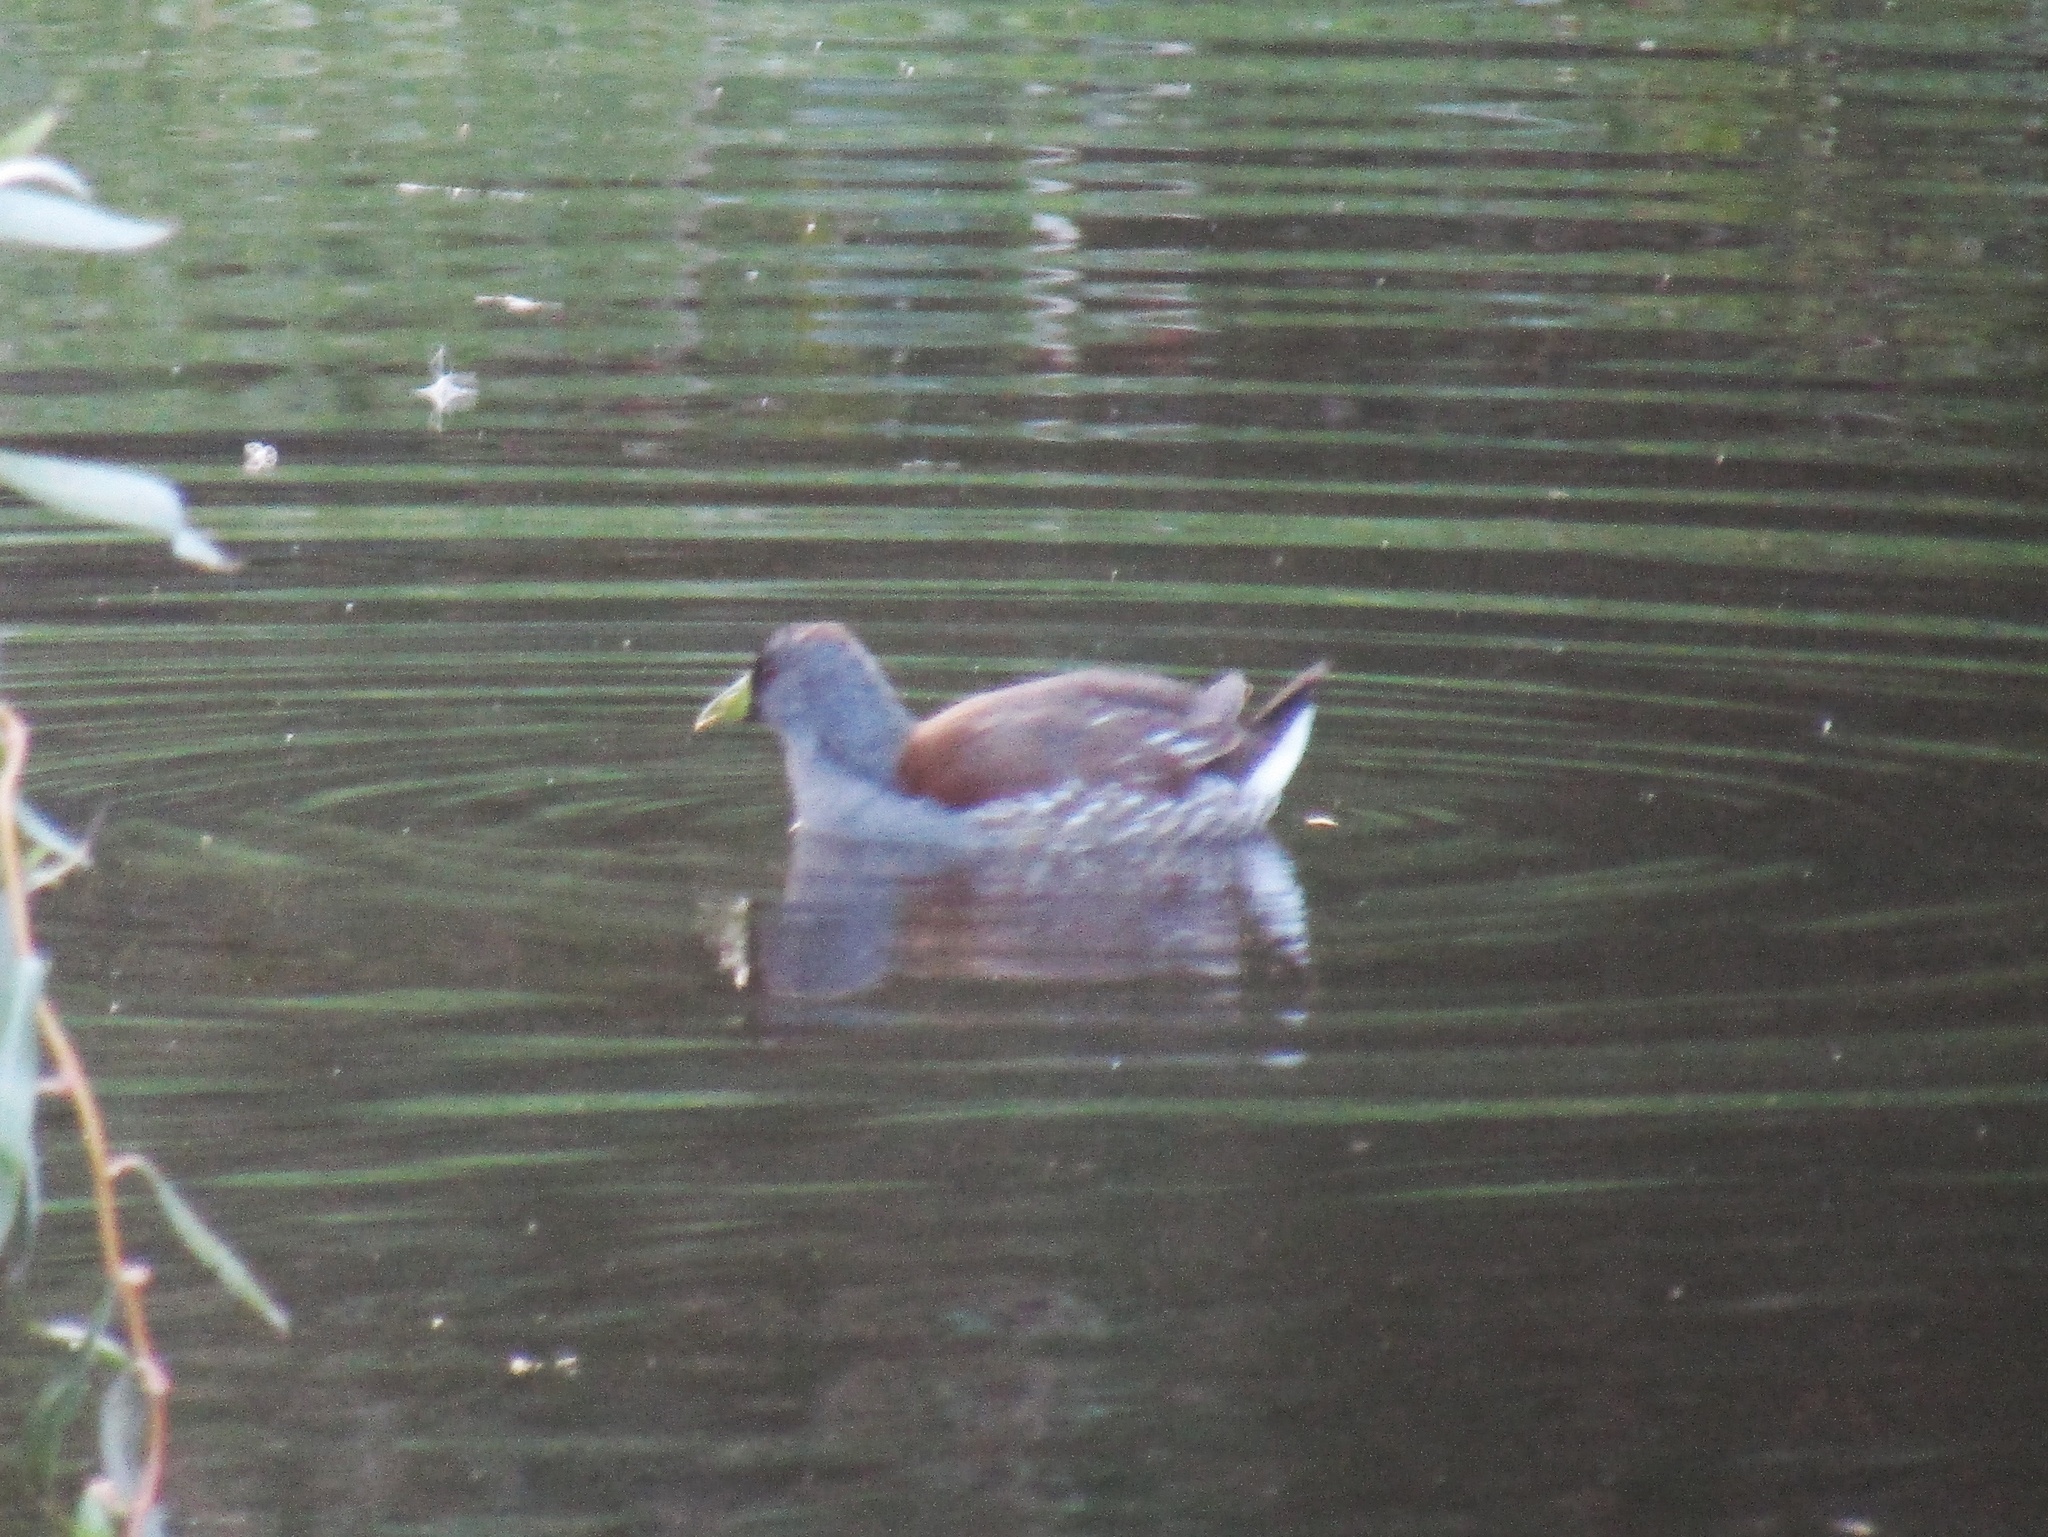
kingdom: Animalia
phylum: Chordata
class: Aves
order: Gruiformes
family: Rallidae
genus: Gallinula
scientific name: Gallinula melanops
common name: Spot-flanked gallinule
